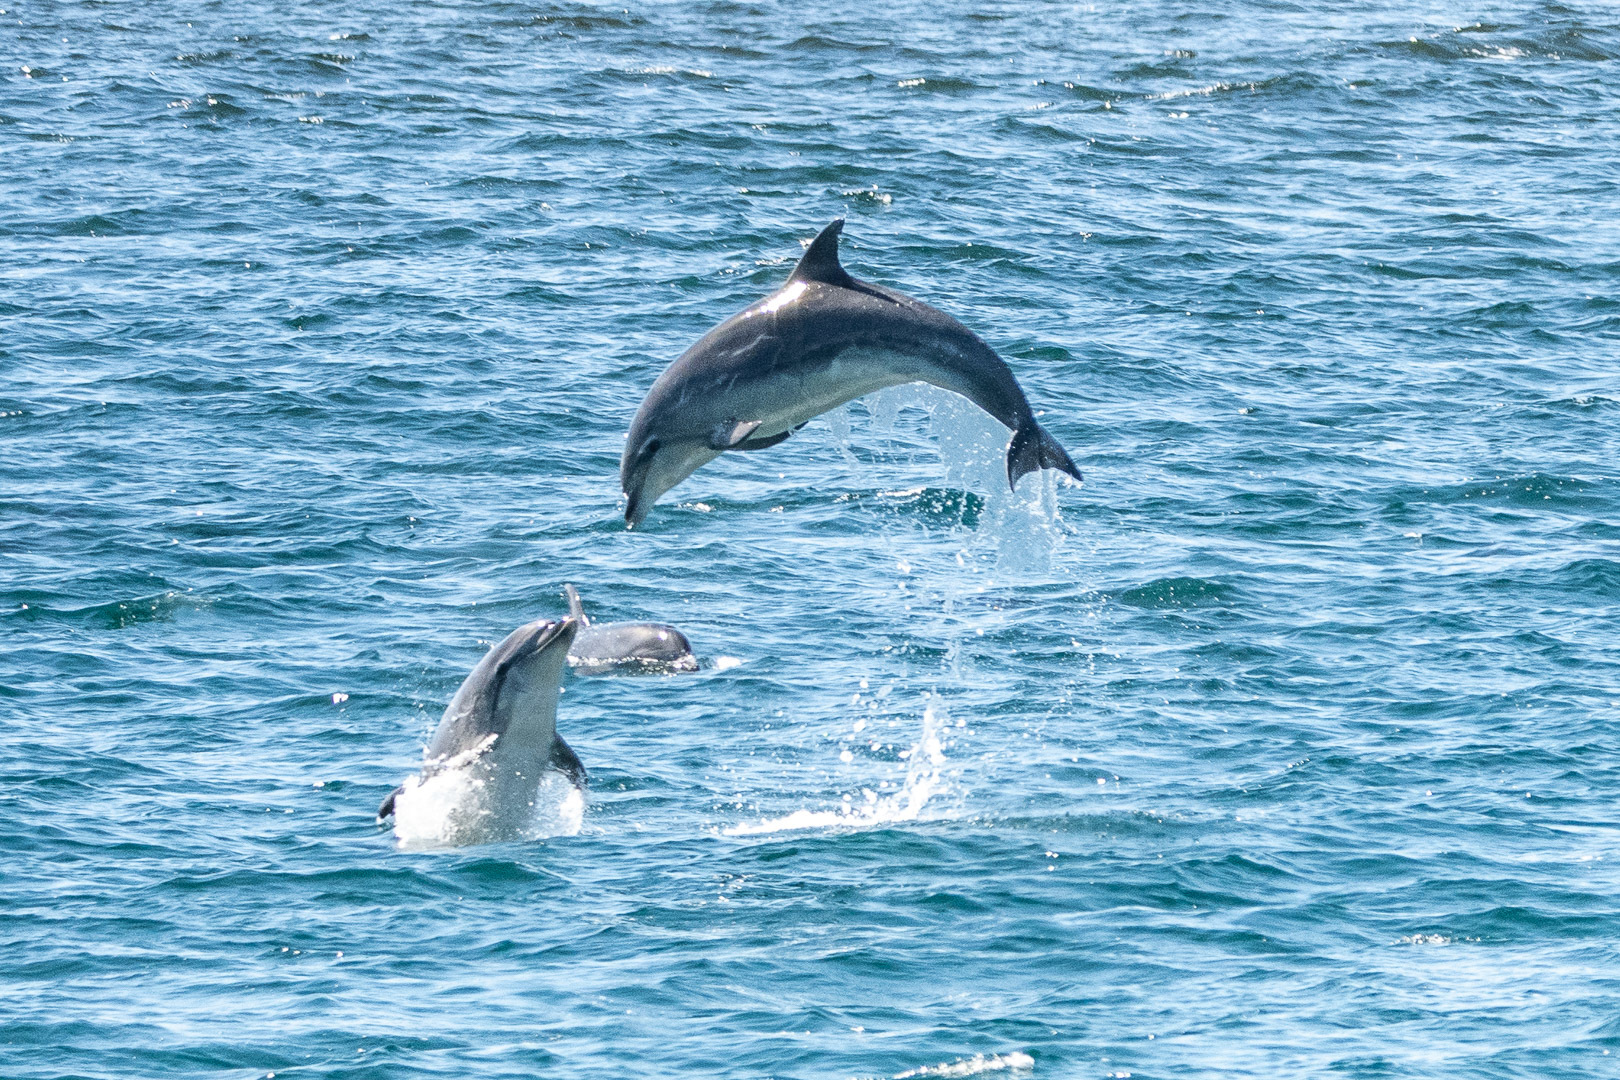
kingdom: Animalia
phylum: Chordata
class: Mammalia
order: Cetacea
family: Delphinidae
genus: Tursiops
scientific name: Tursiops truncatus
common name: Bottlenose dolphin
